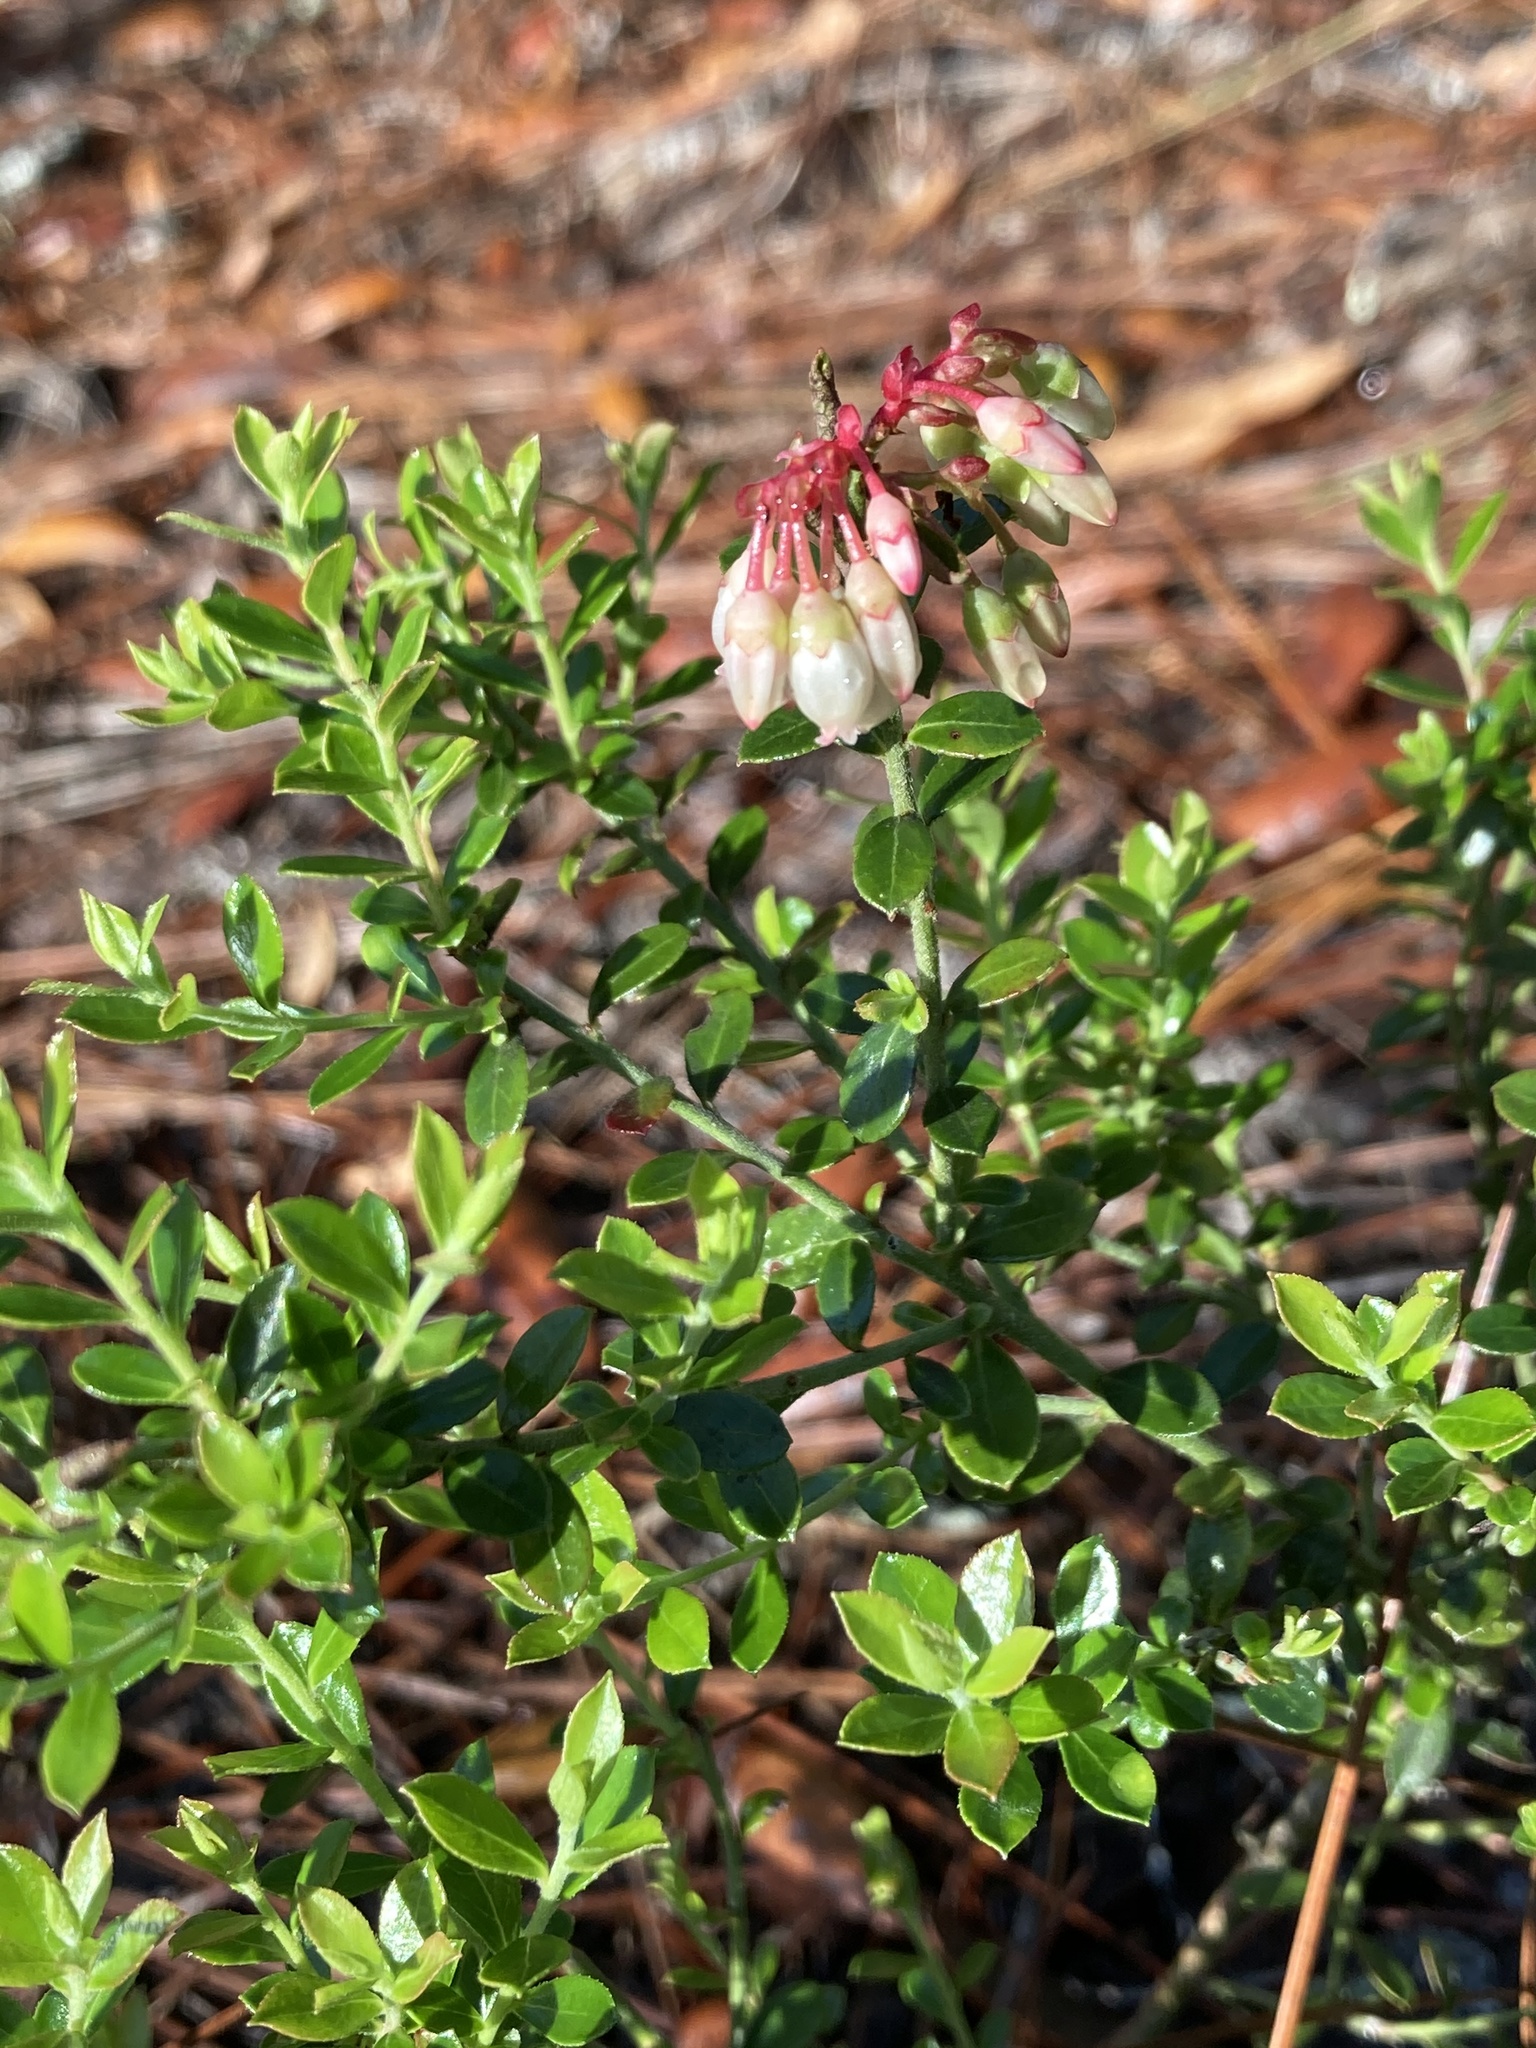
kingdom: Plantae
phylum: Tracheophyta
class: Magnoliopsida
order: Ericales
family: Ericaceae
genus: Vaccinium
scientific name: Vaccinium myrsinites
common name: Evergreen blueberry
